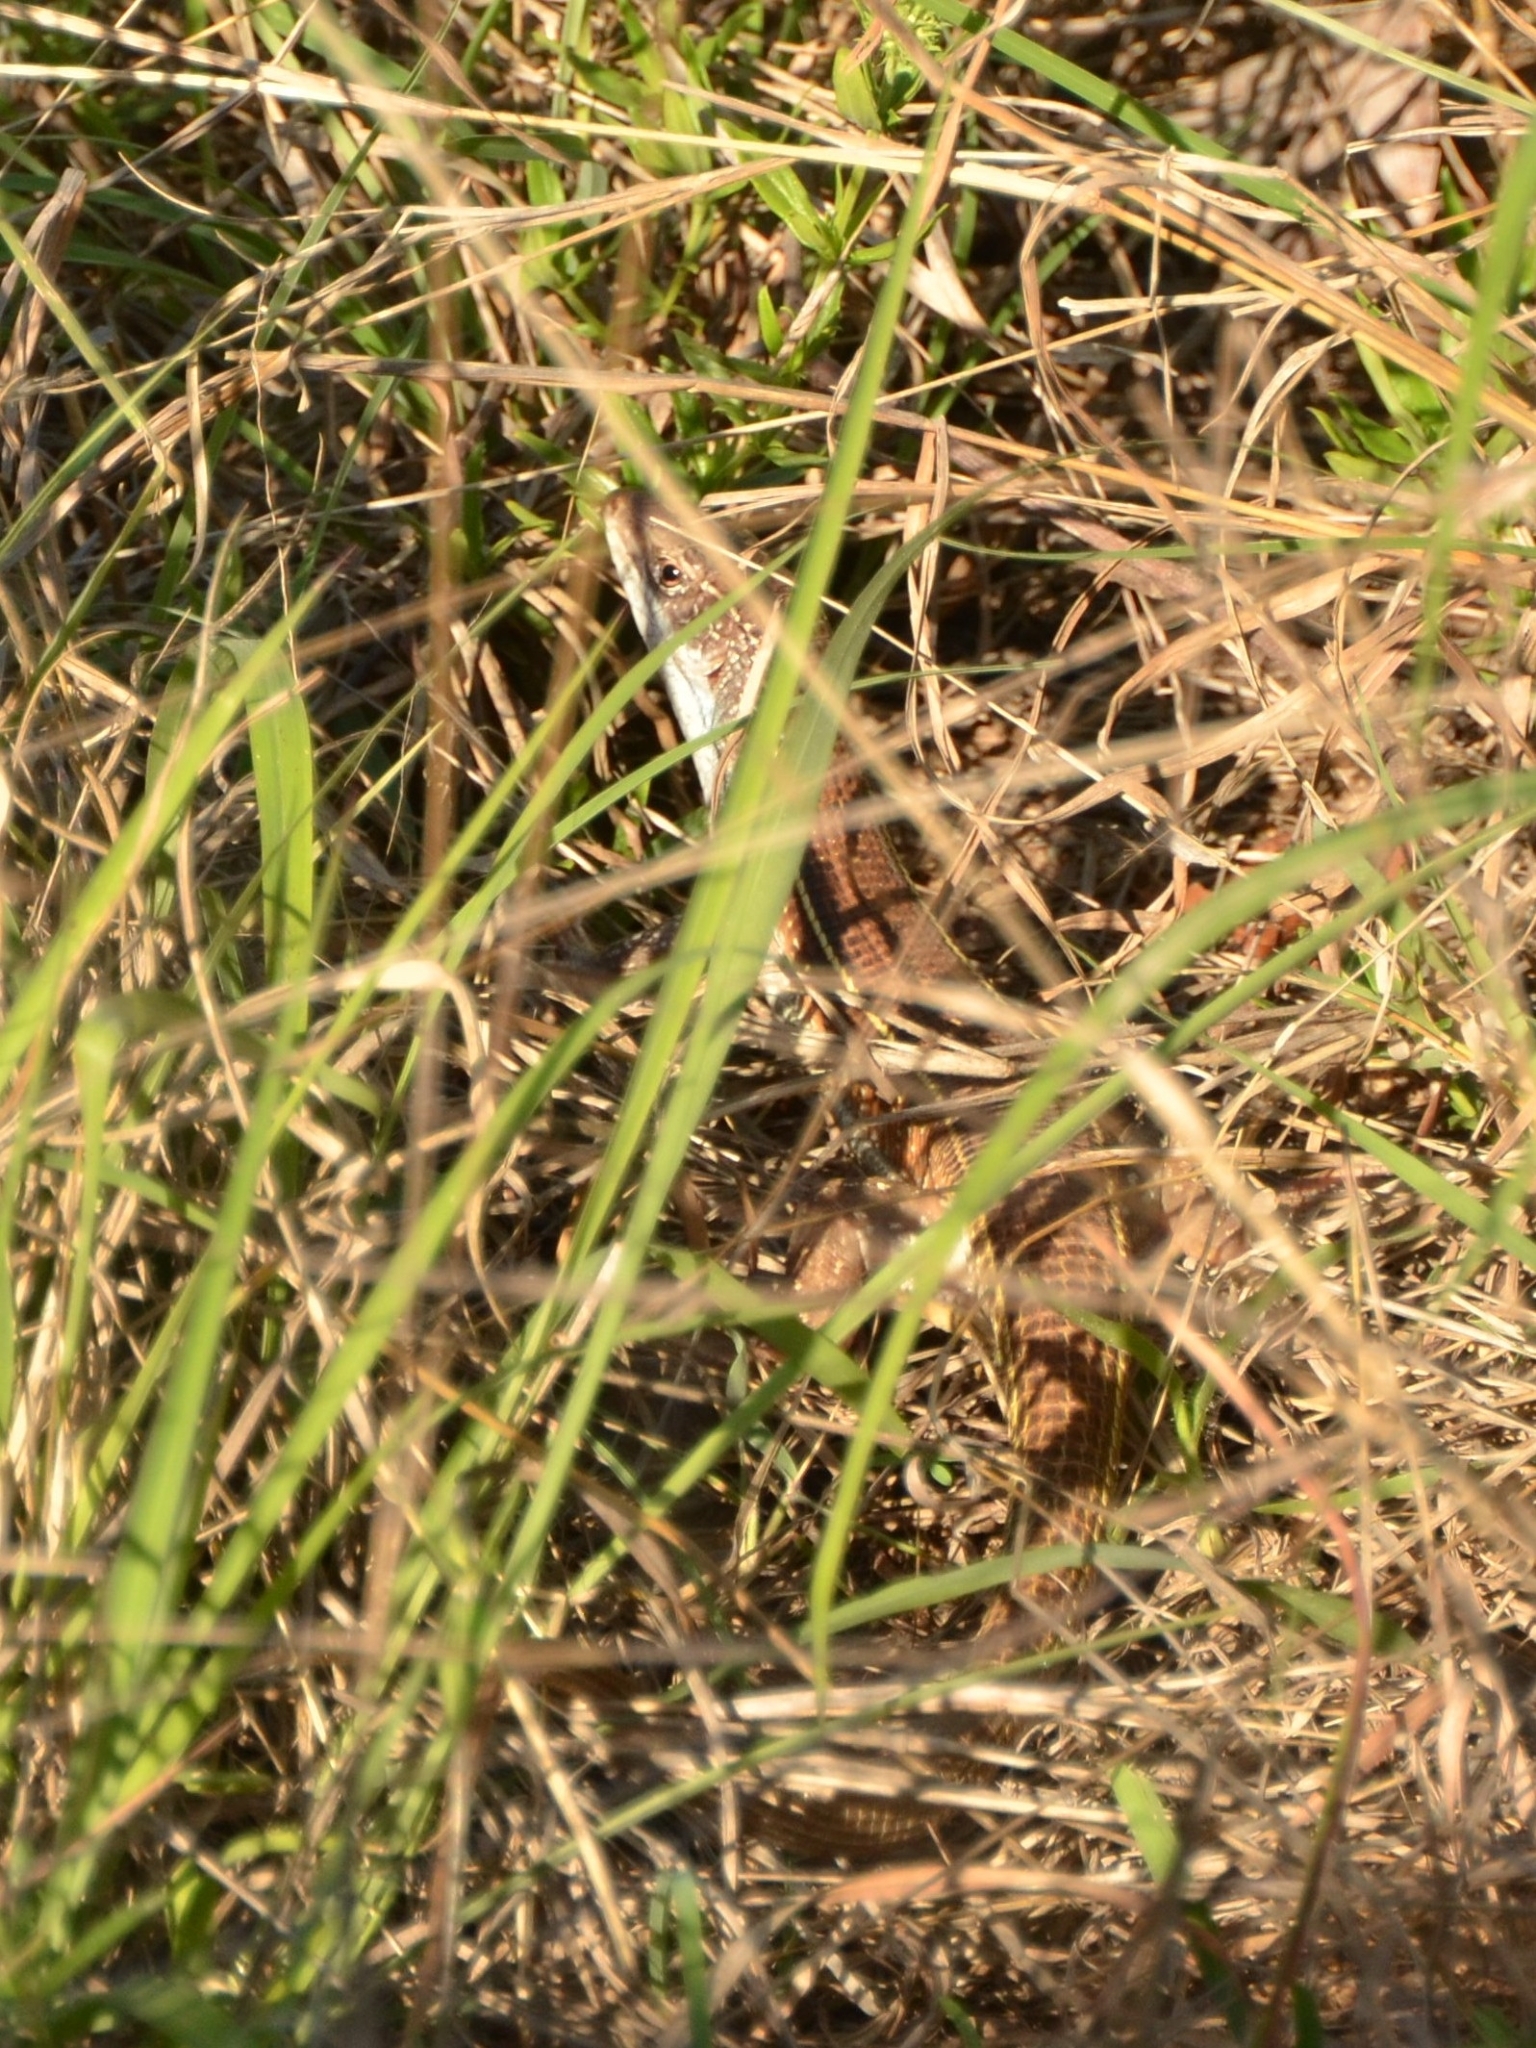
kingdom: Animalia
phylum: Chordata
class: Squamata
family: Gerrhosauridae
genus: Gerrhosaurus
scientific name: Gerrhosaurus nigrolineatus
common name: Black-lined plated lizard
